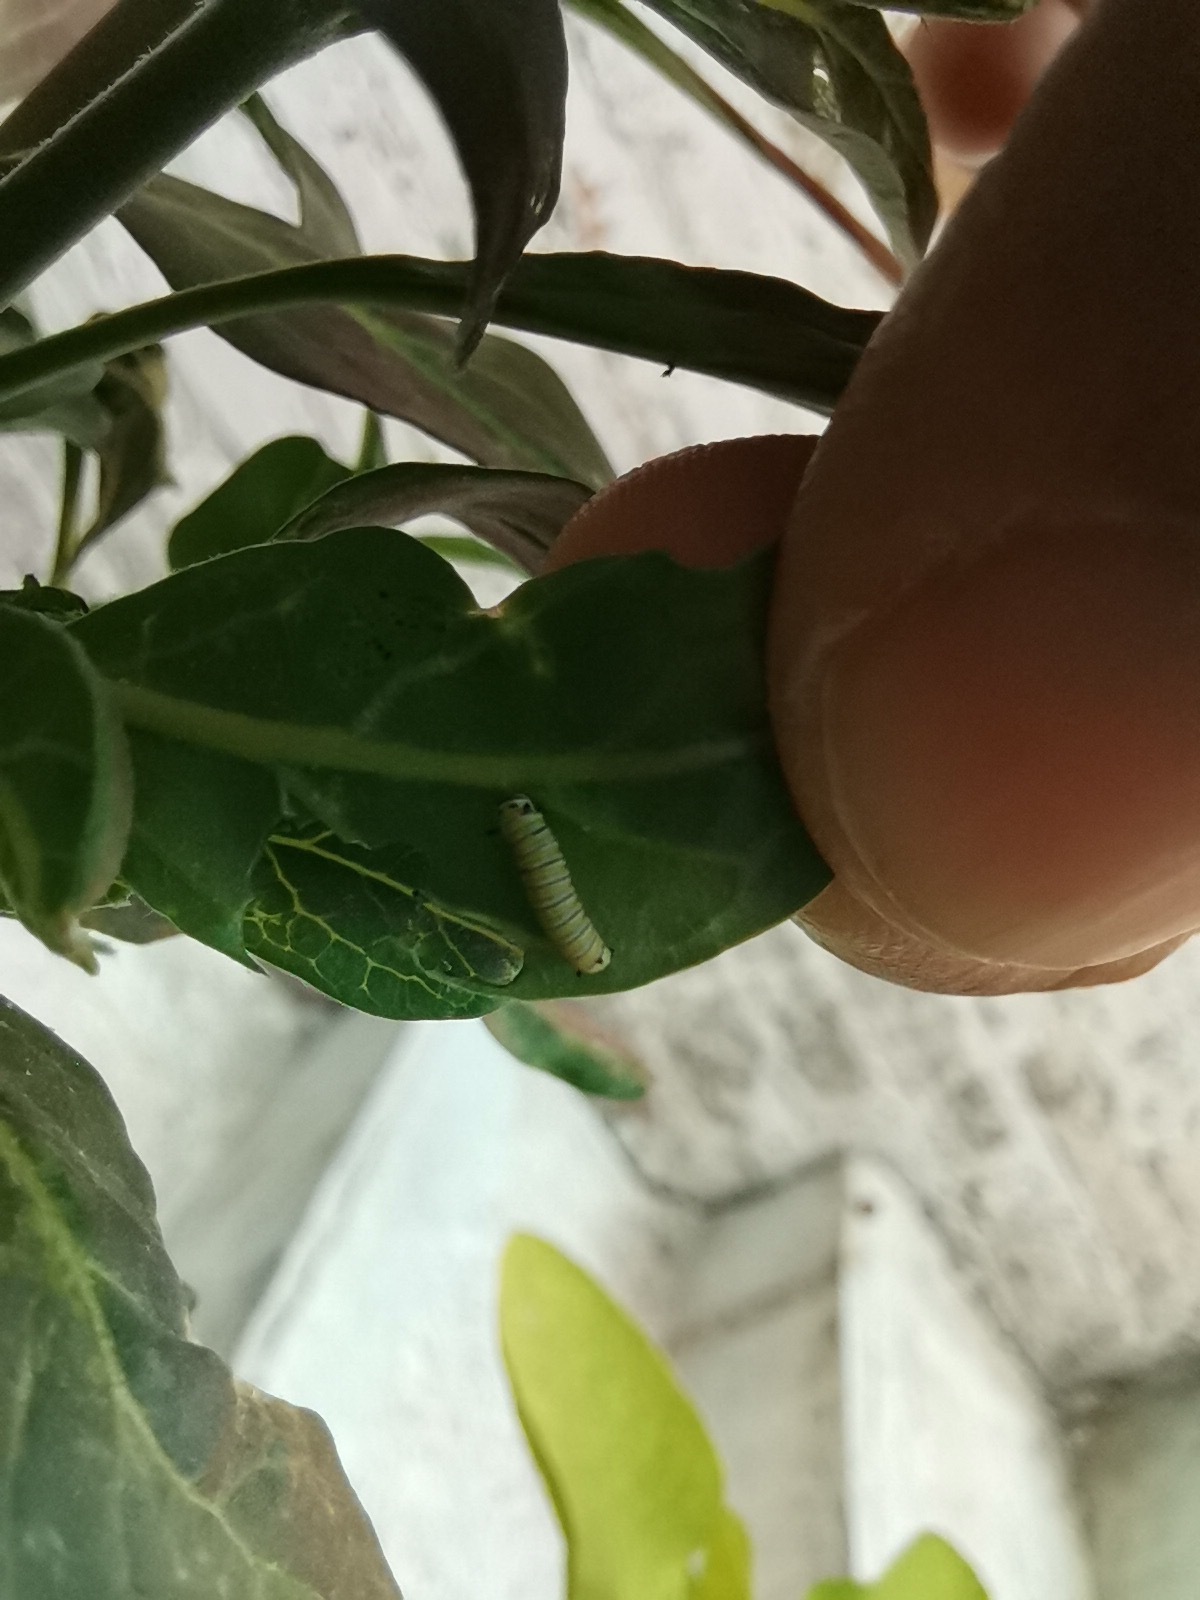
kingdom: Animalia
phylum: Arthropoda
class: Insecta
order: Lepidoptera
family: Nymphalidae
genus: Danaus
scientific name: Danaus plexippus
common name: Monarch
